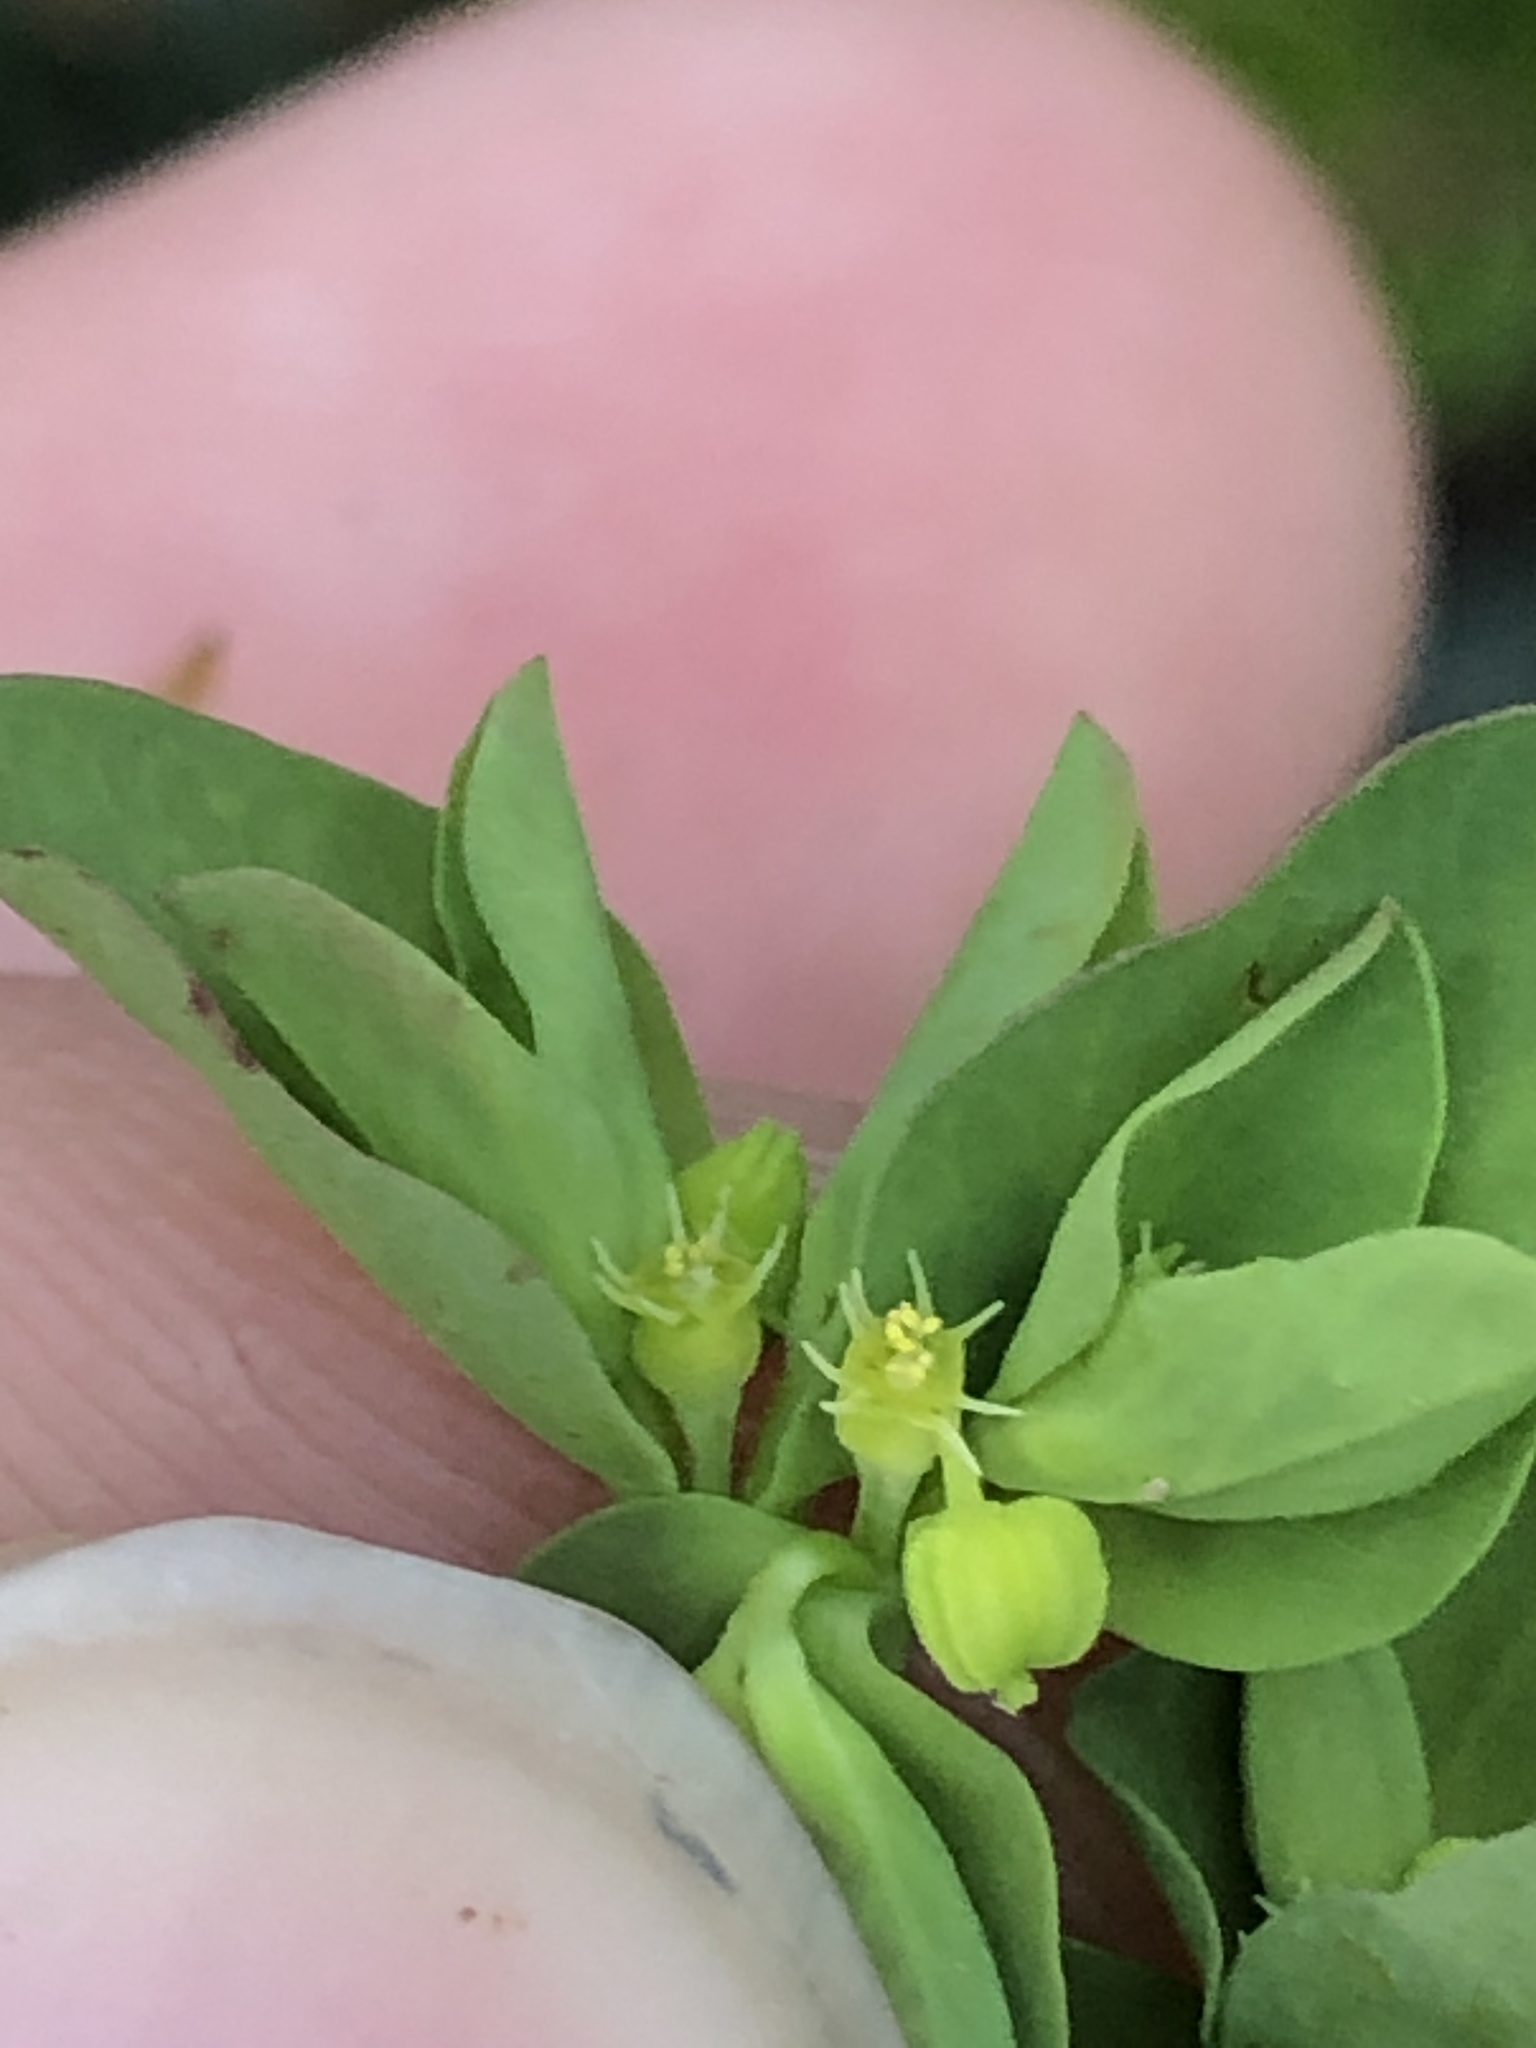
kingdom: Plantae
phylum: Tracheophyta
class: Magnoliopsida
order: Malpighiales
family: Euphorbiaceae
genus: Euphorbia
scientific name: Euphorbia peplus
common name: Petty spurge
